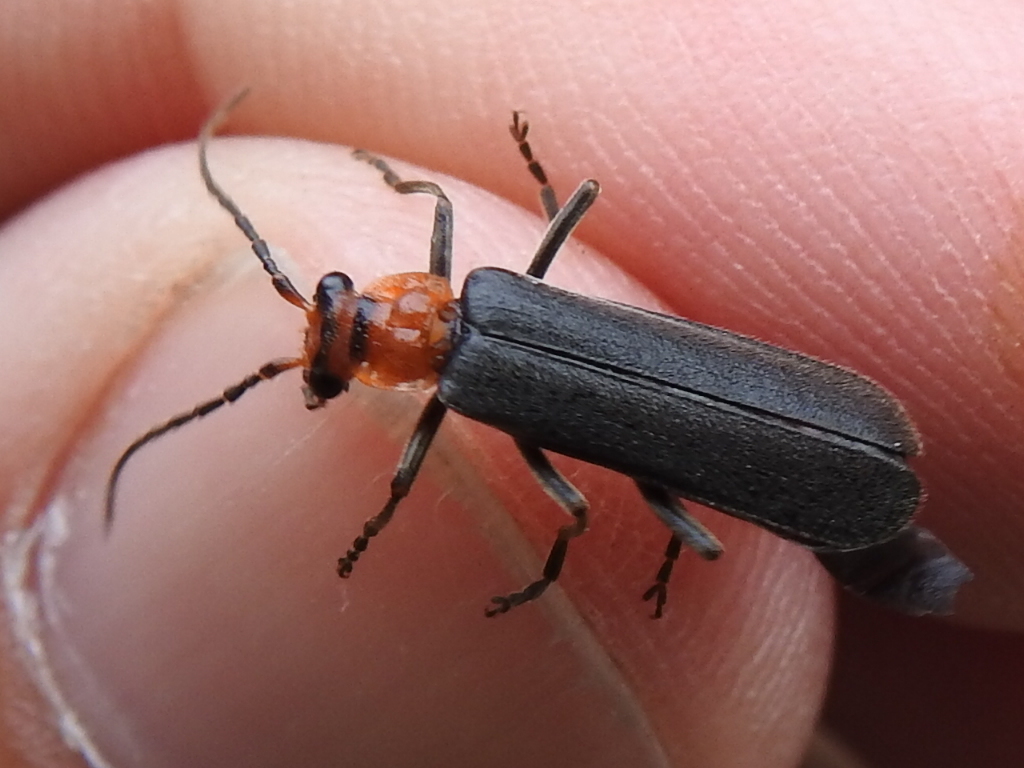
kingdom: Animalia
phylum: Arthropoda
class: Insecta
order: Coleoptera
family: Cantharidae
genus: Podabrus
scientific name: Podabrus conspiratus
